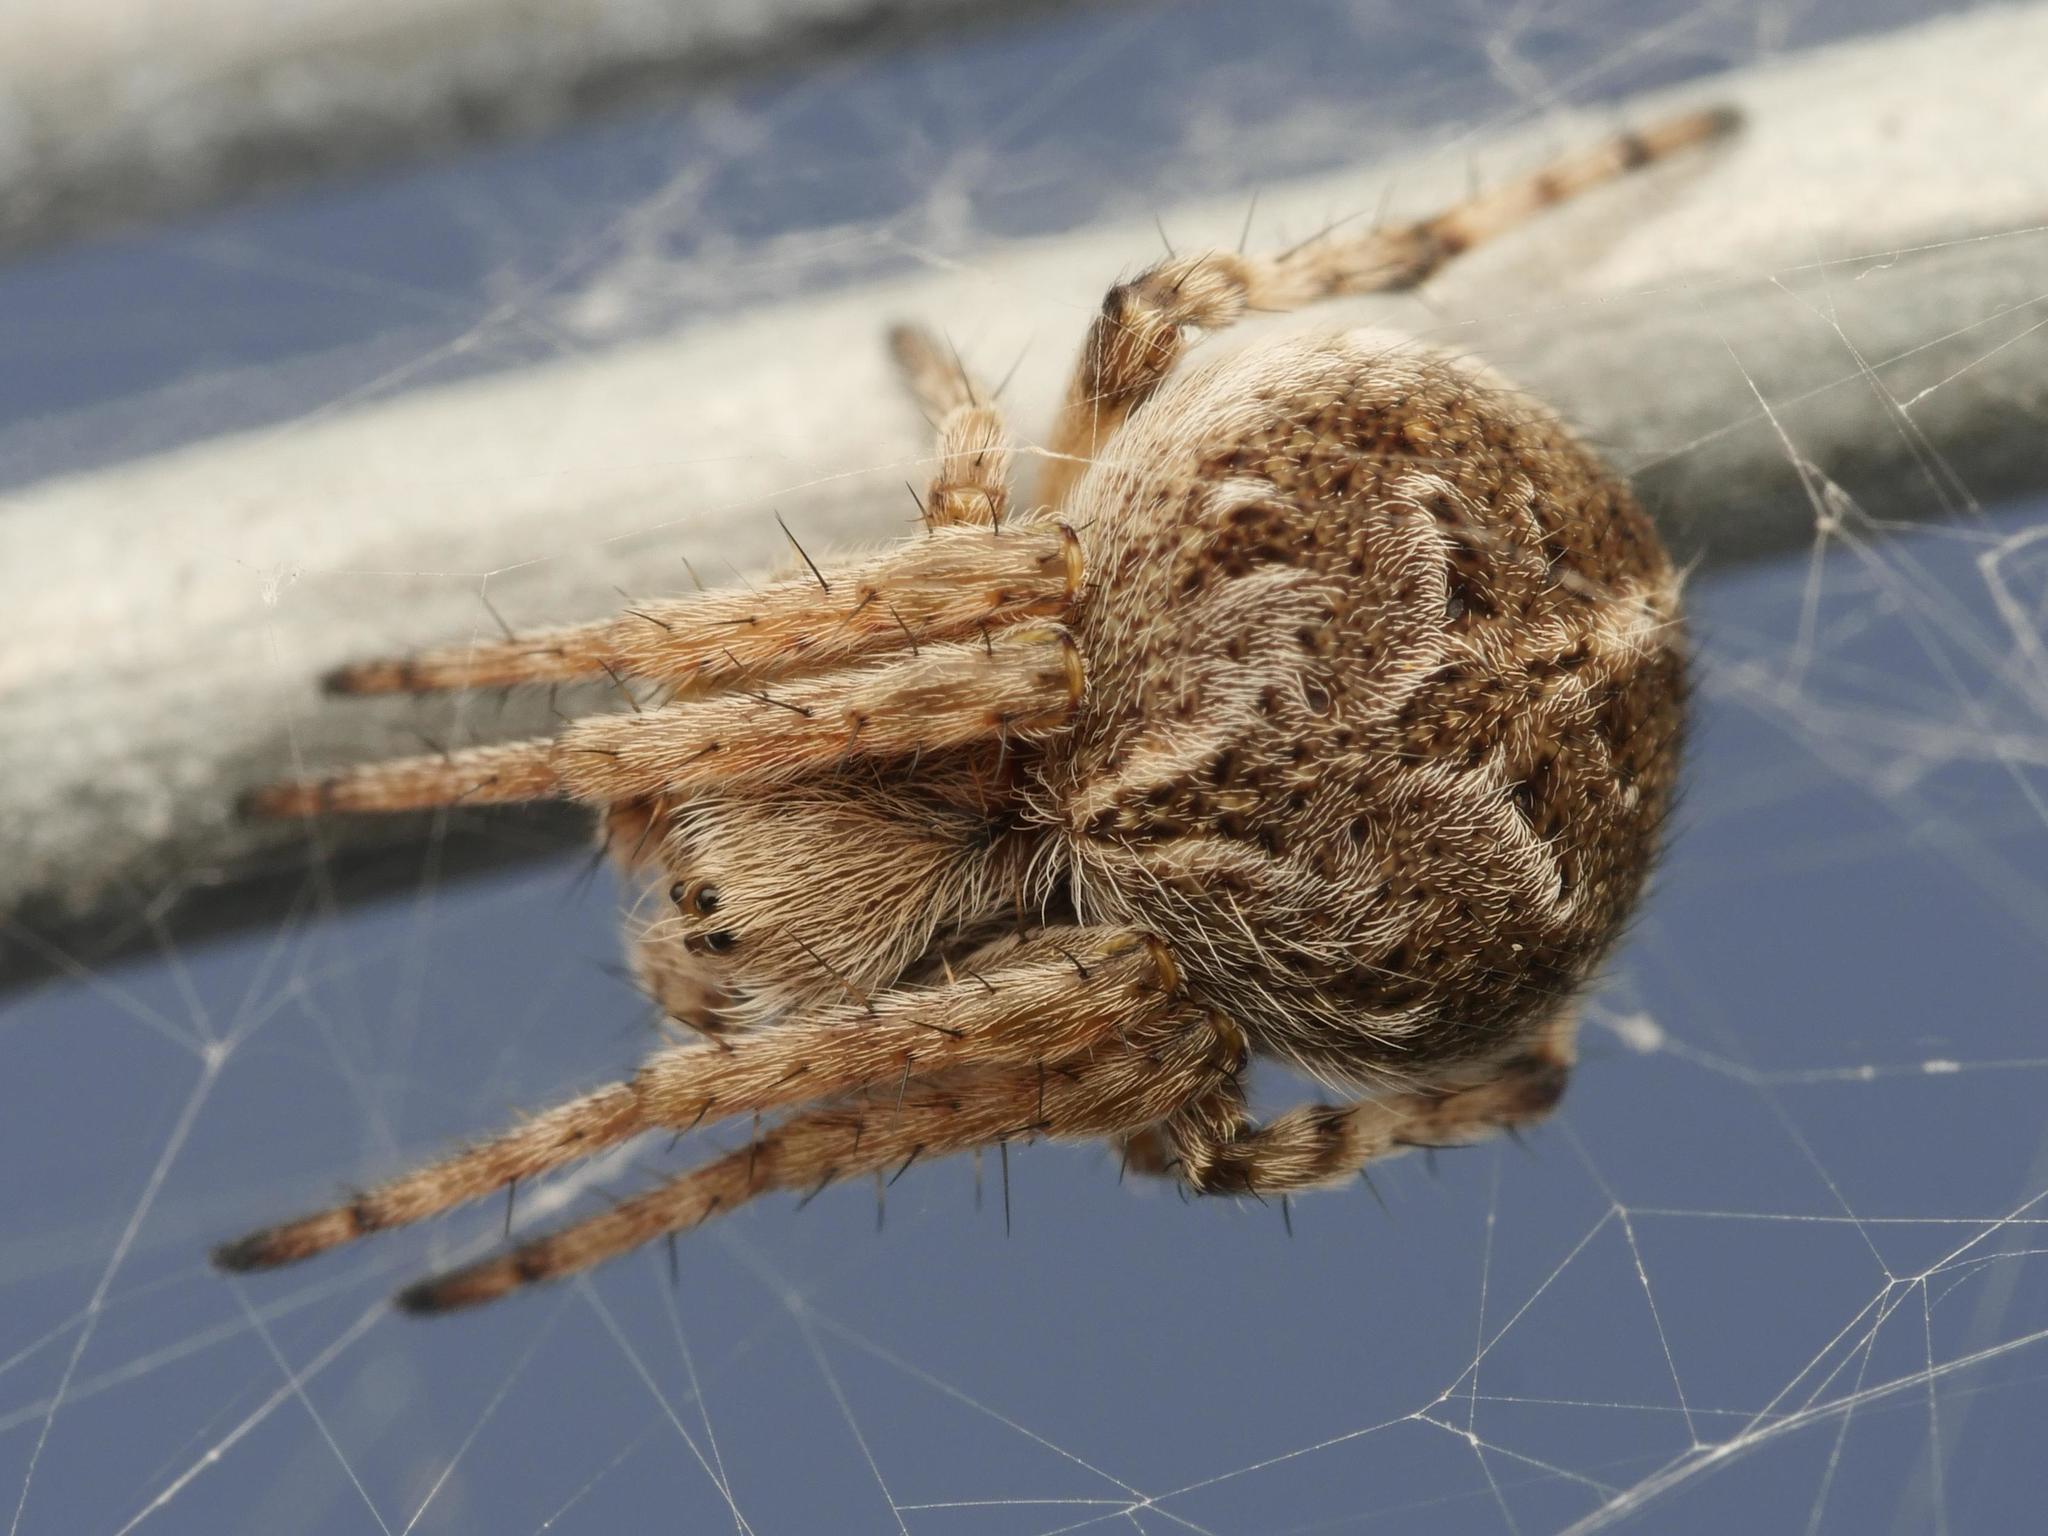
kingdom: Animalia
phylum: Arthropoda
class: Arachnida
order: Araneae
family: Araneidae
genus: Agalenatea
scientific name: Agalenatea redii
